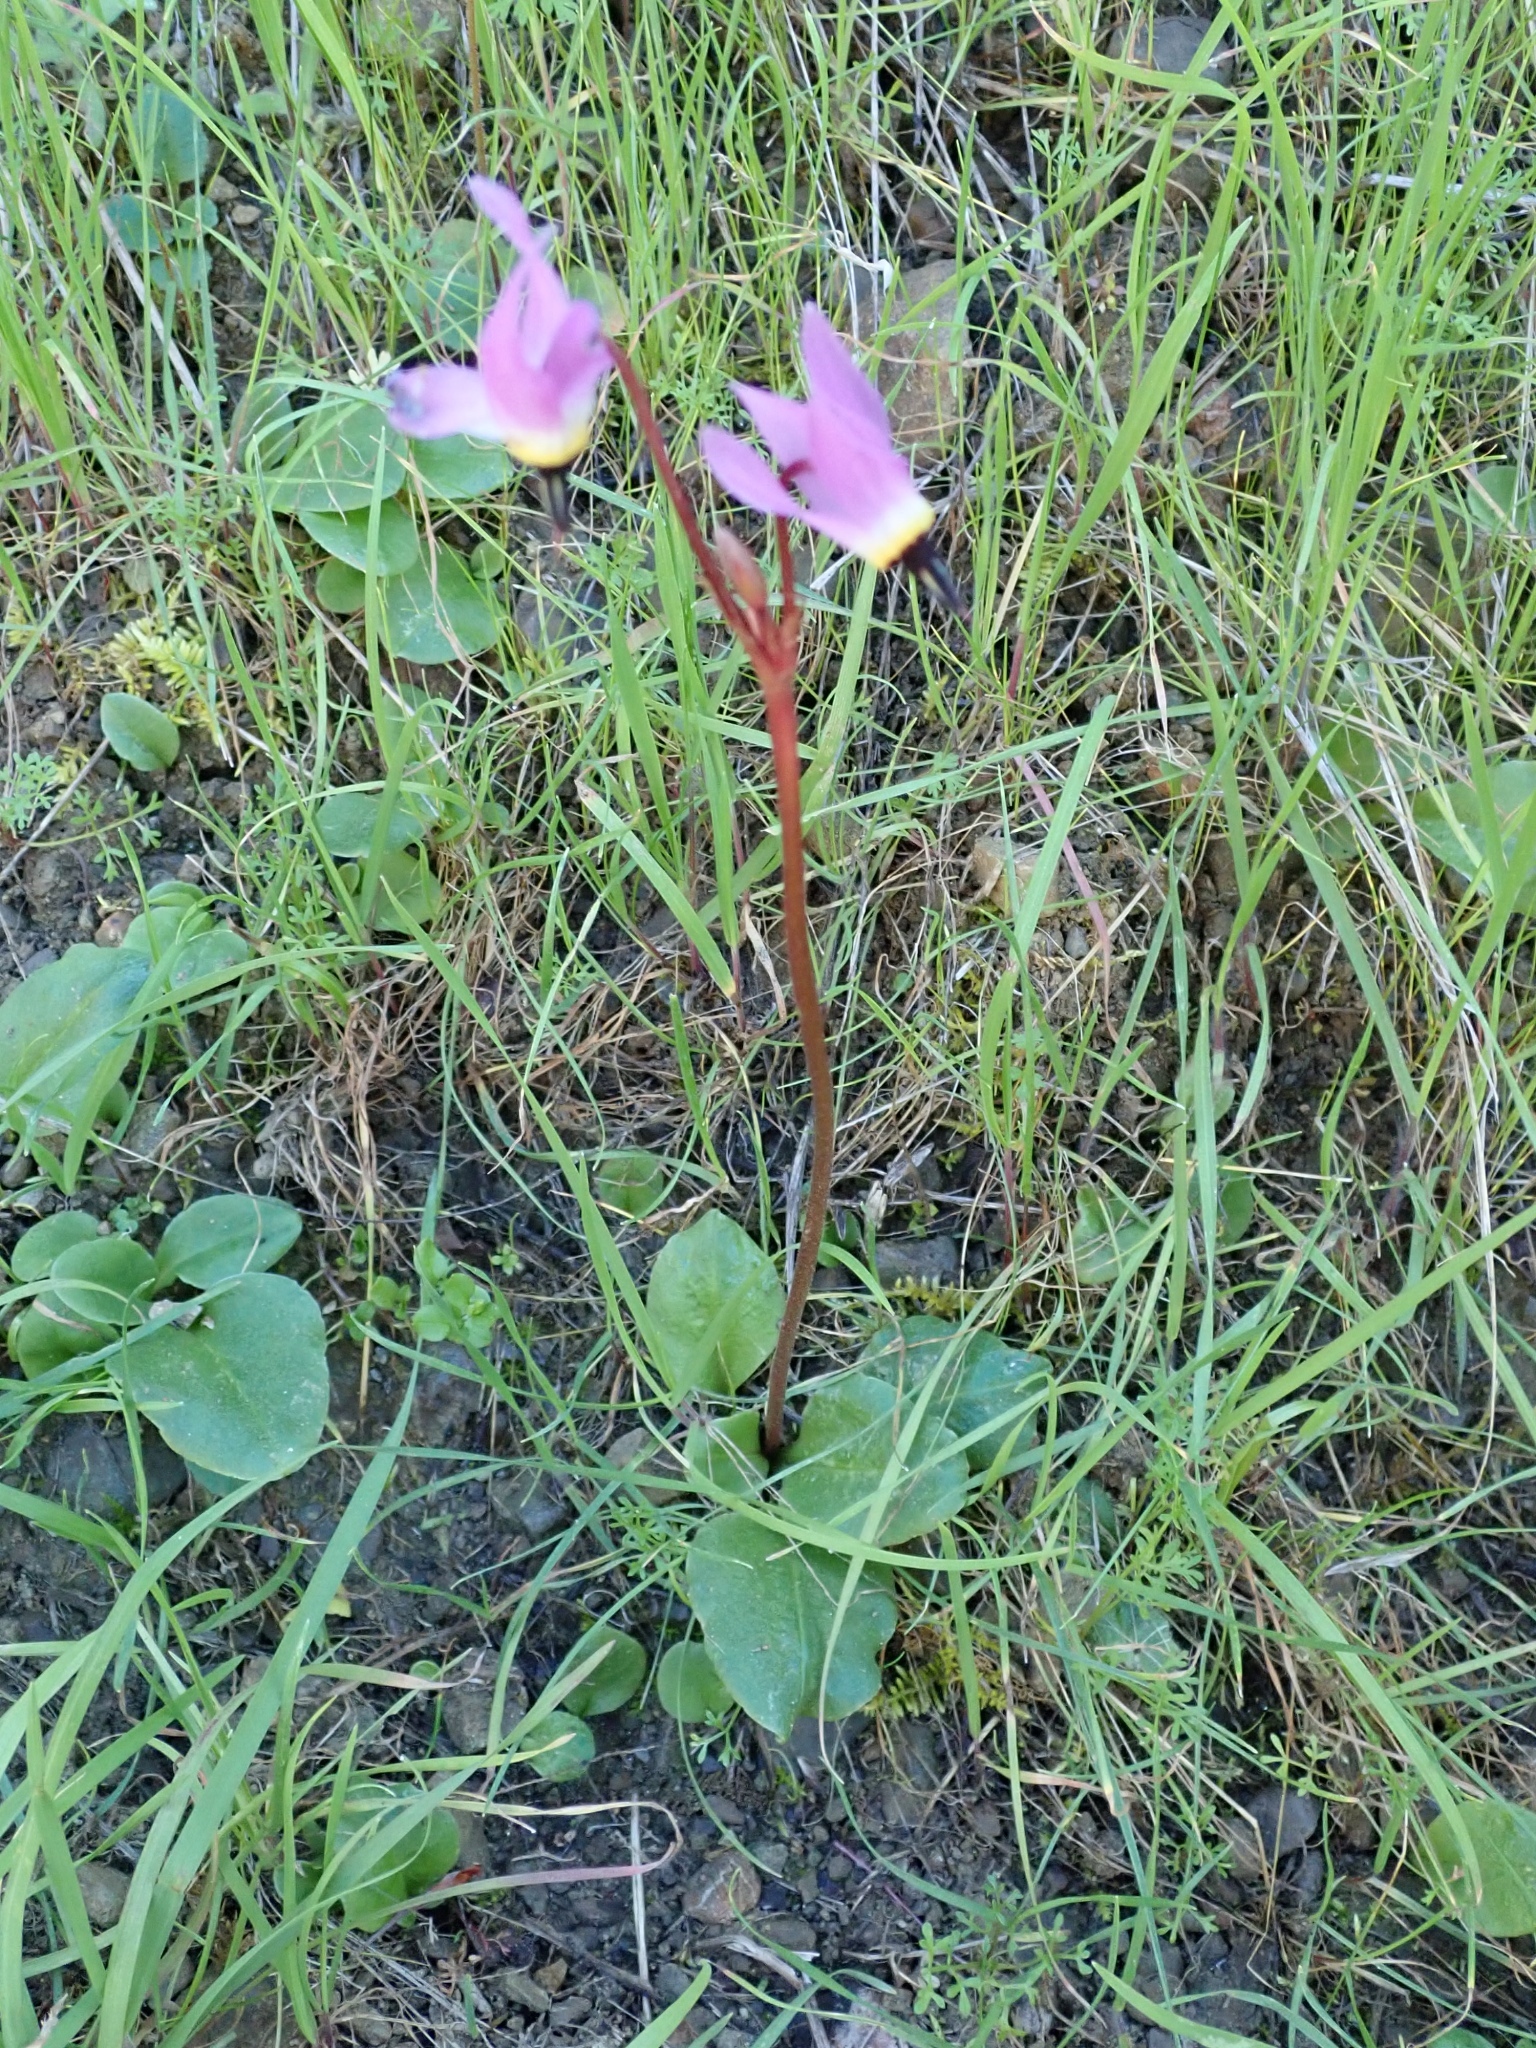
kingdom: Plantae
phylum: Tracheophyta
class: Magnoliopsida
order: Ericales
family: Primulaceae
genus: Dodecatheon
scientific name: Dodecatheon hendersonii
